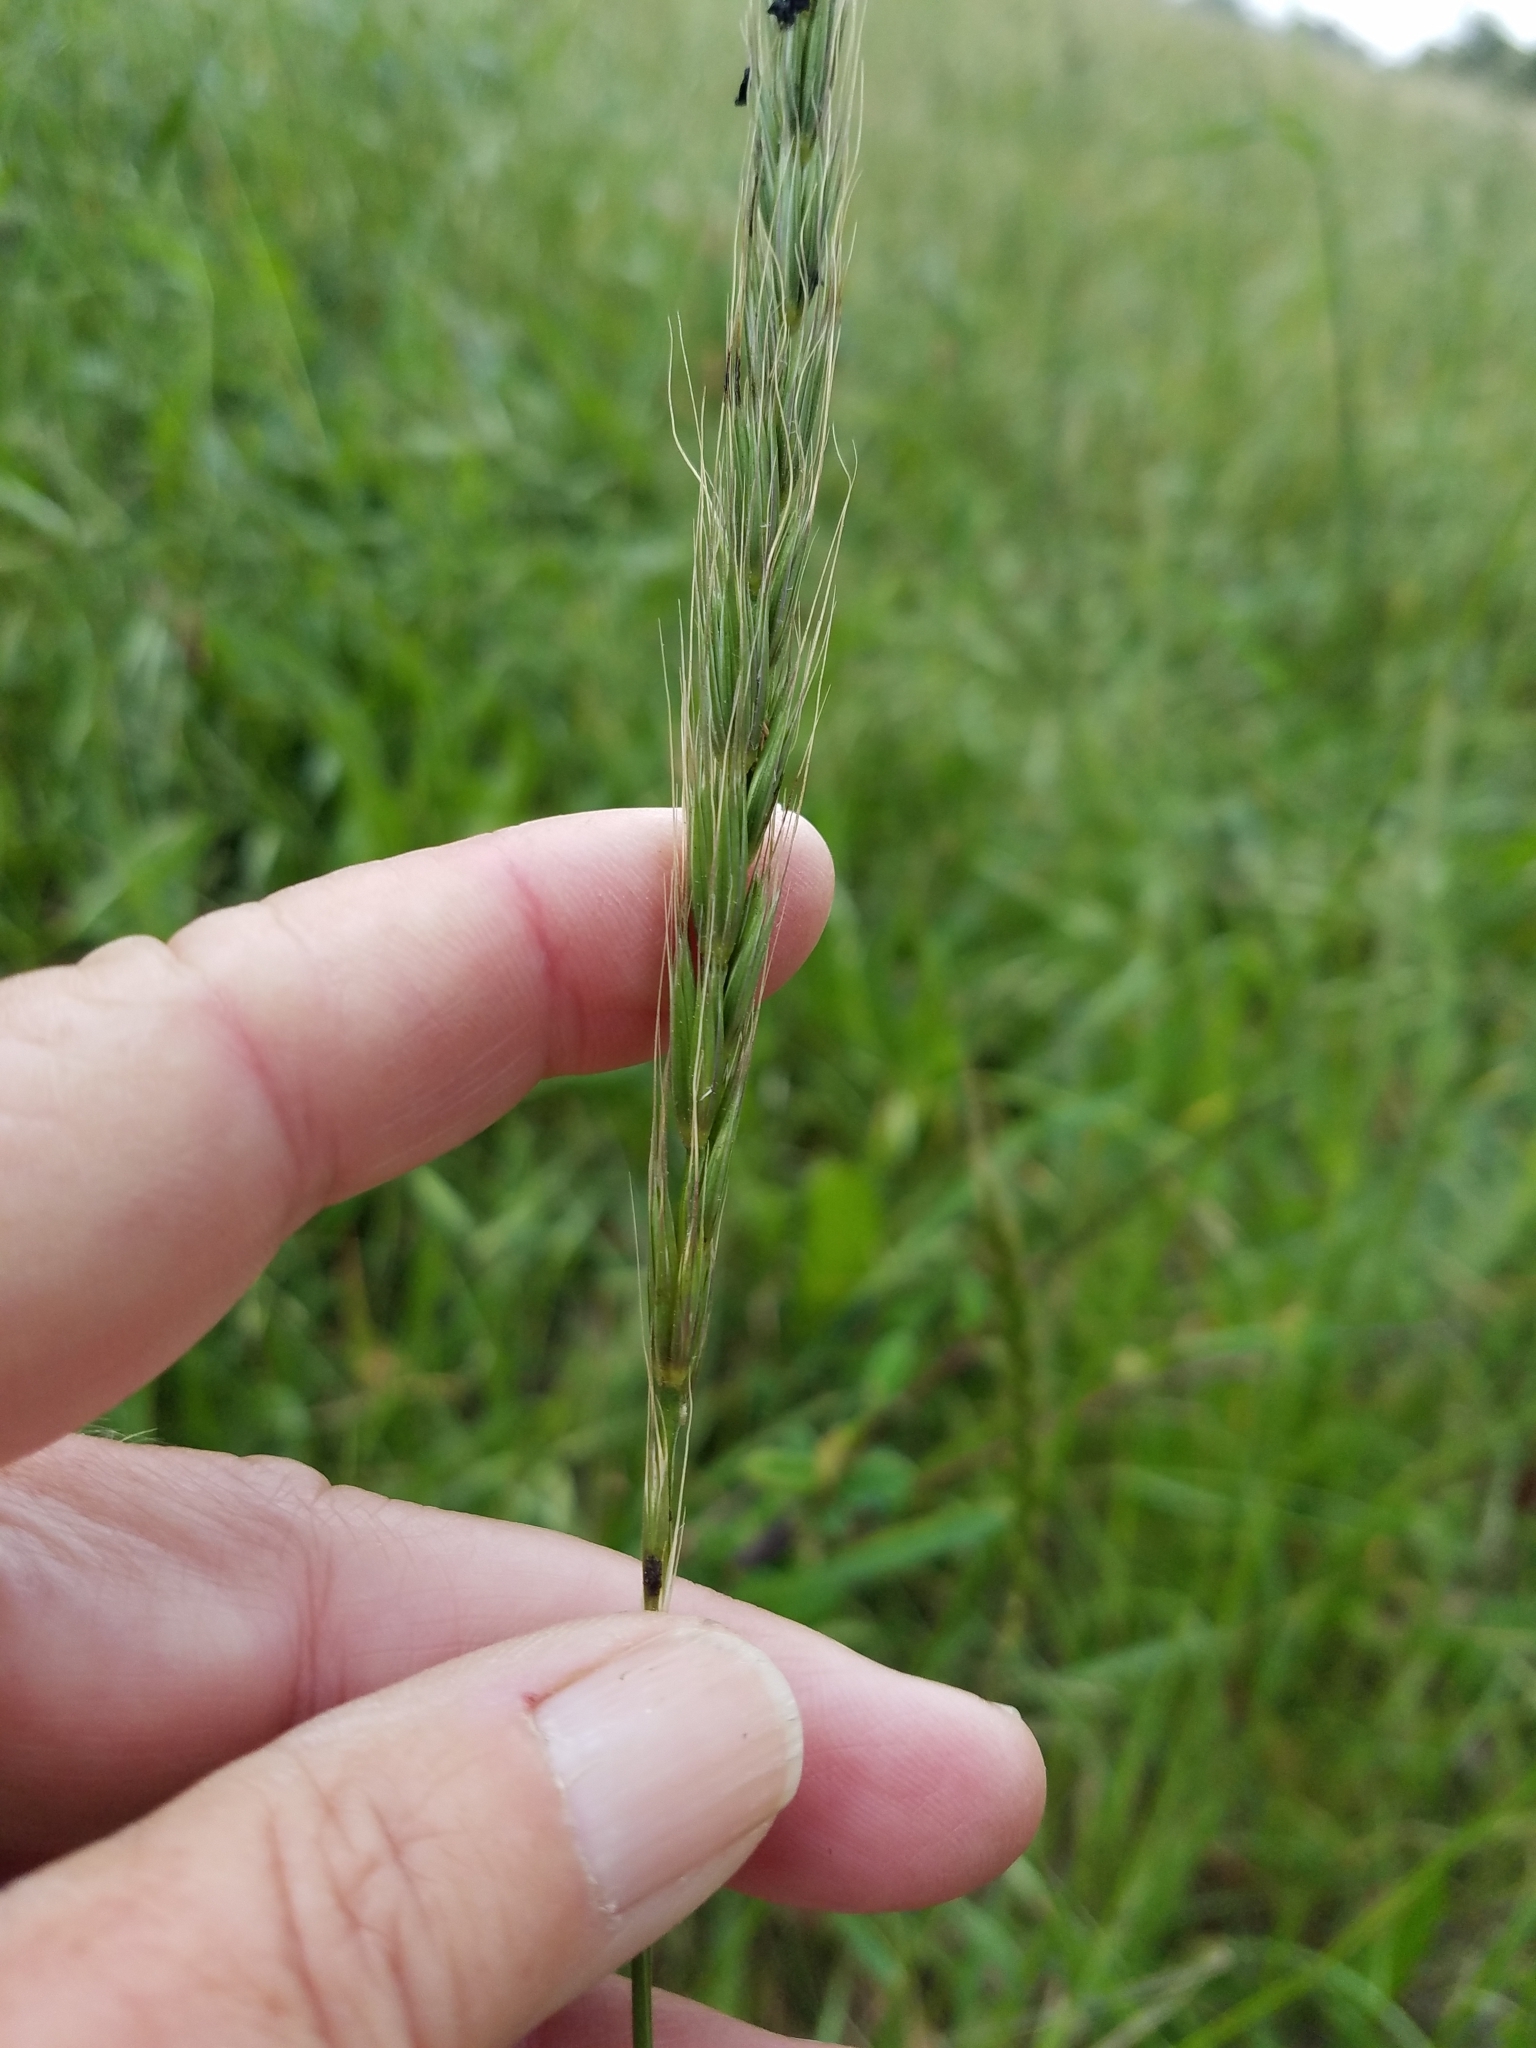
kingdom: Plantae
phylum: Tracheophyta
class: Liliopsida
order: Poales
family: Poaceae
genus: Elymus
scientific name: Elymus glaucus
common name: Blue wild rye
